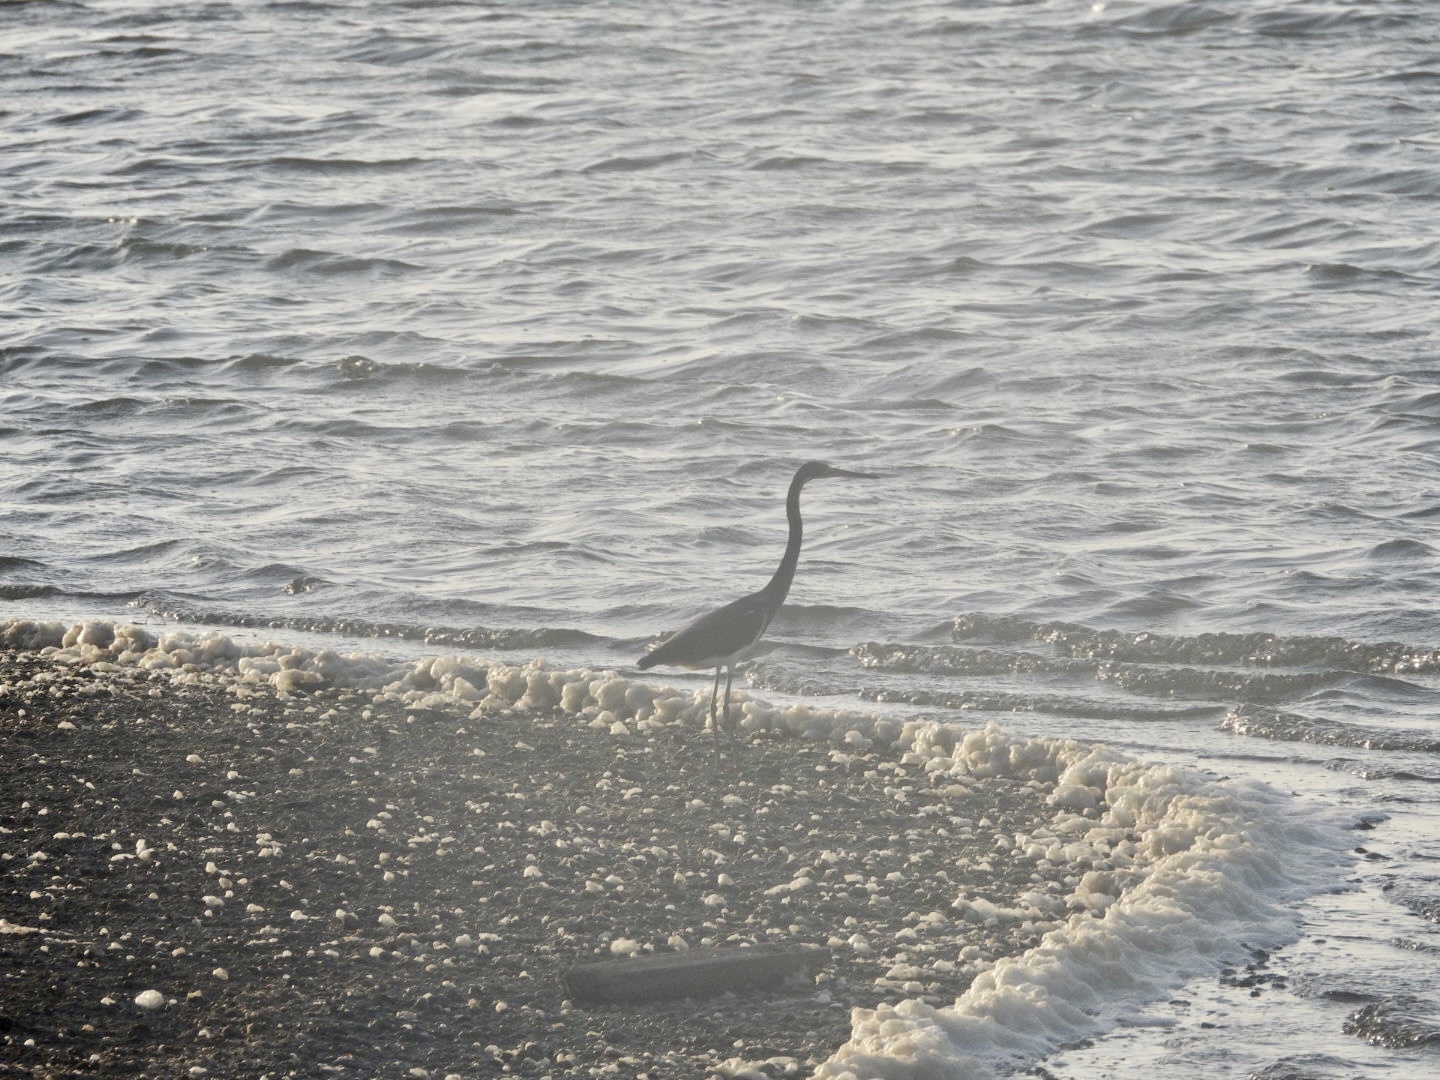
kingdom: Animalia
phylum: Chordata
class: Aves
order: Pelecaniformes
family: Ardeidae
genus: Egretta
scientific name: Egretta tricolor
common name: Tricolored heron
